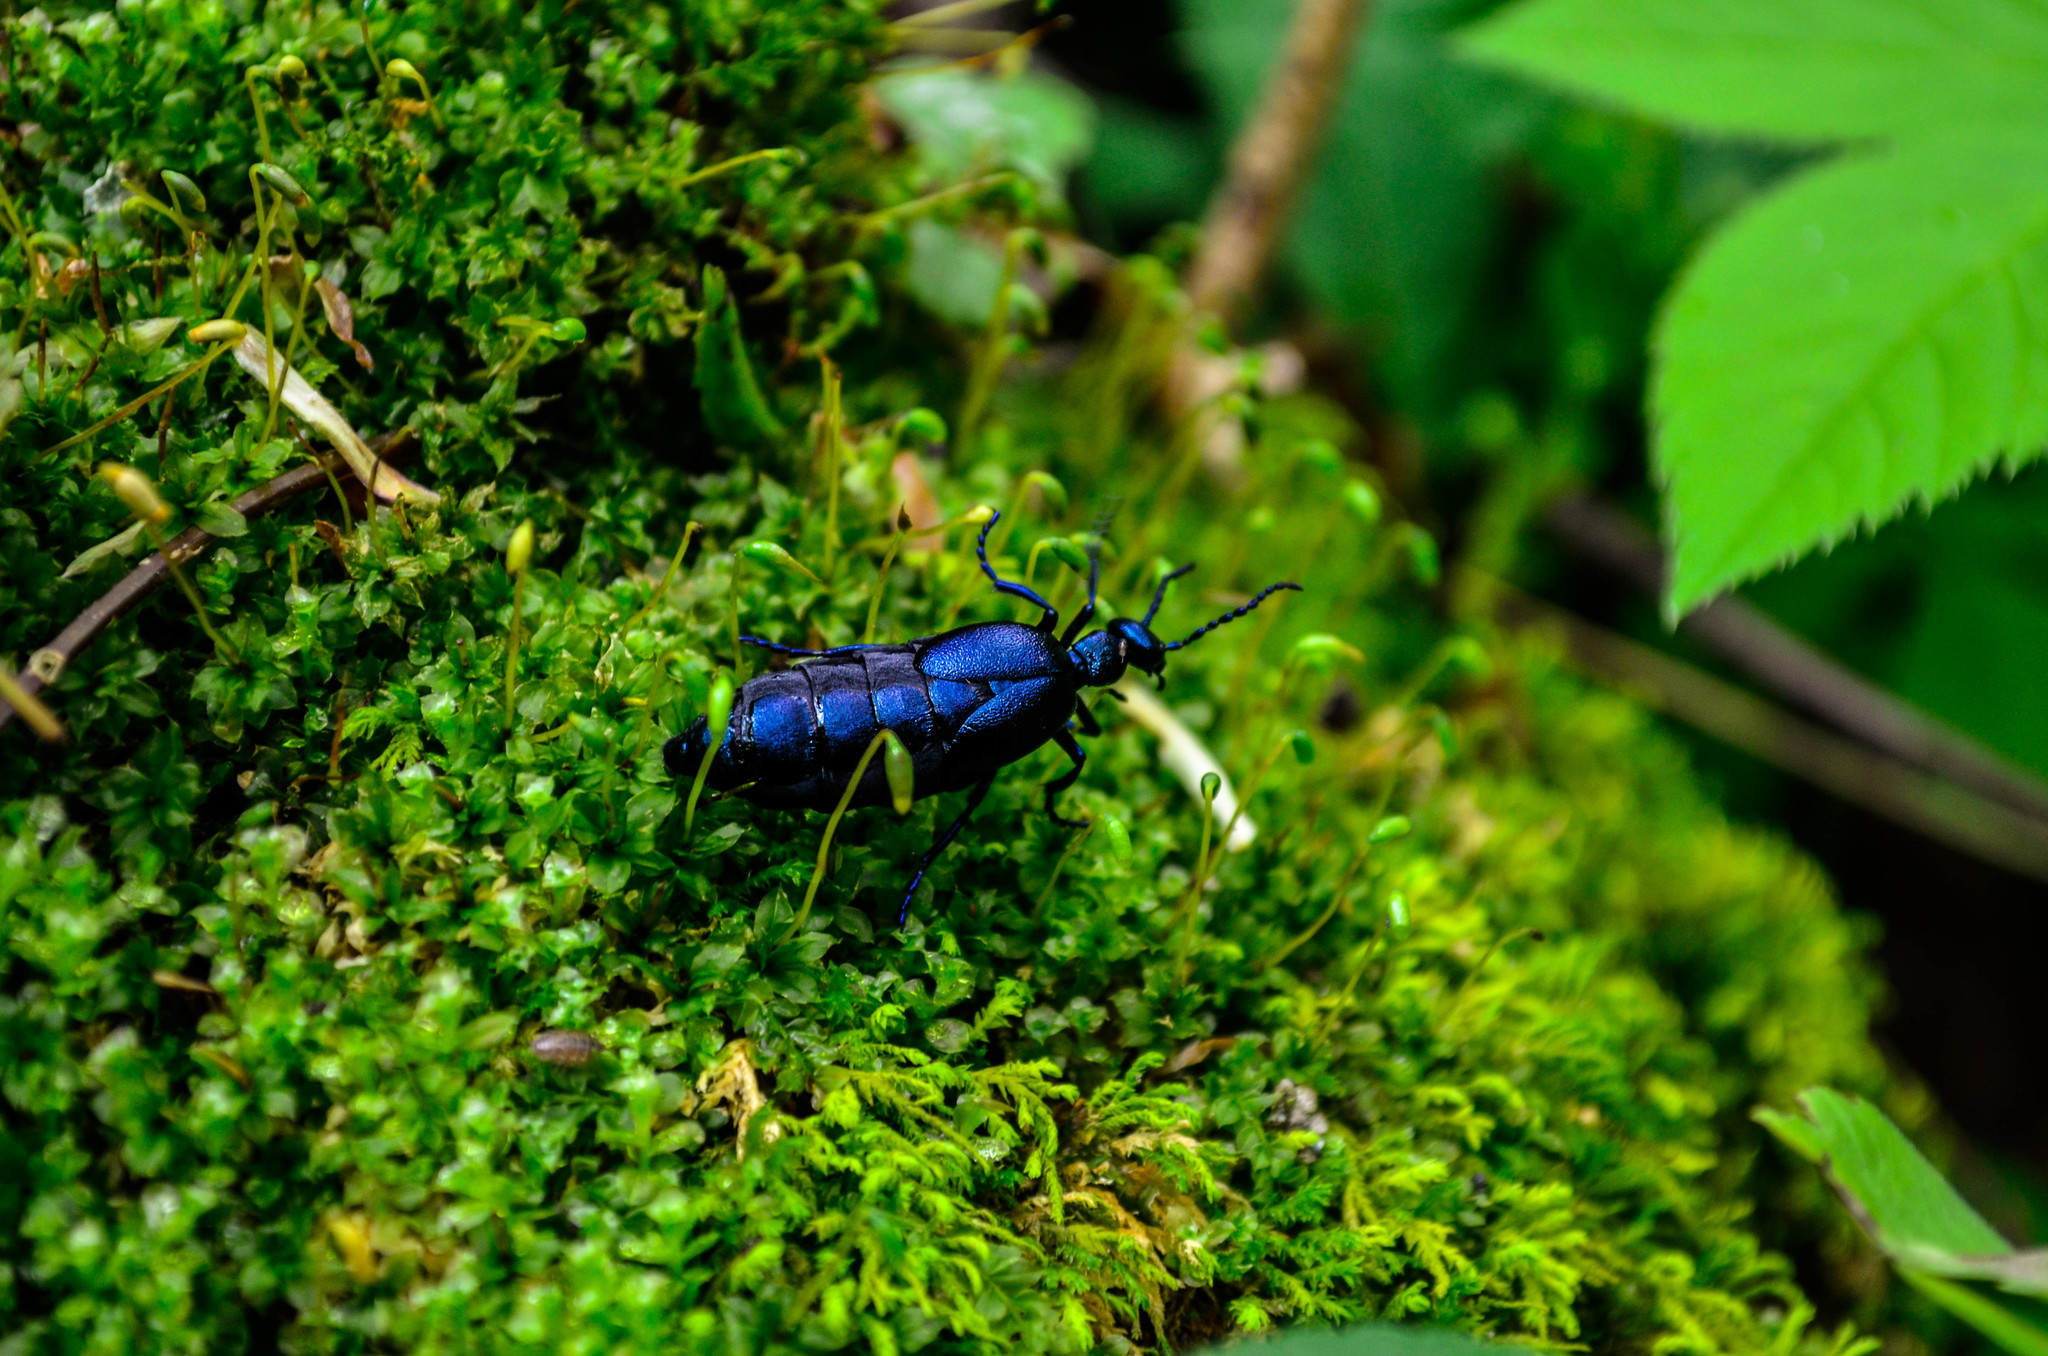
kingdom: Animalia
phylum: Arthropoda
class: Insecta
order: Coleoptera
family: Meloidae
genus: Meloe
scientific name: Meloe violaceus
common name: Violet oil-beetle
